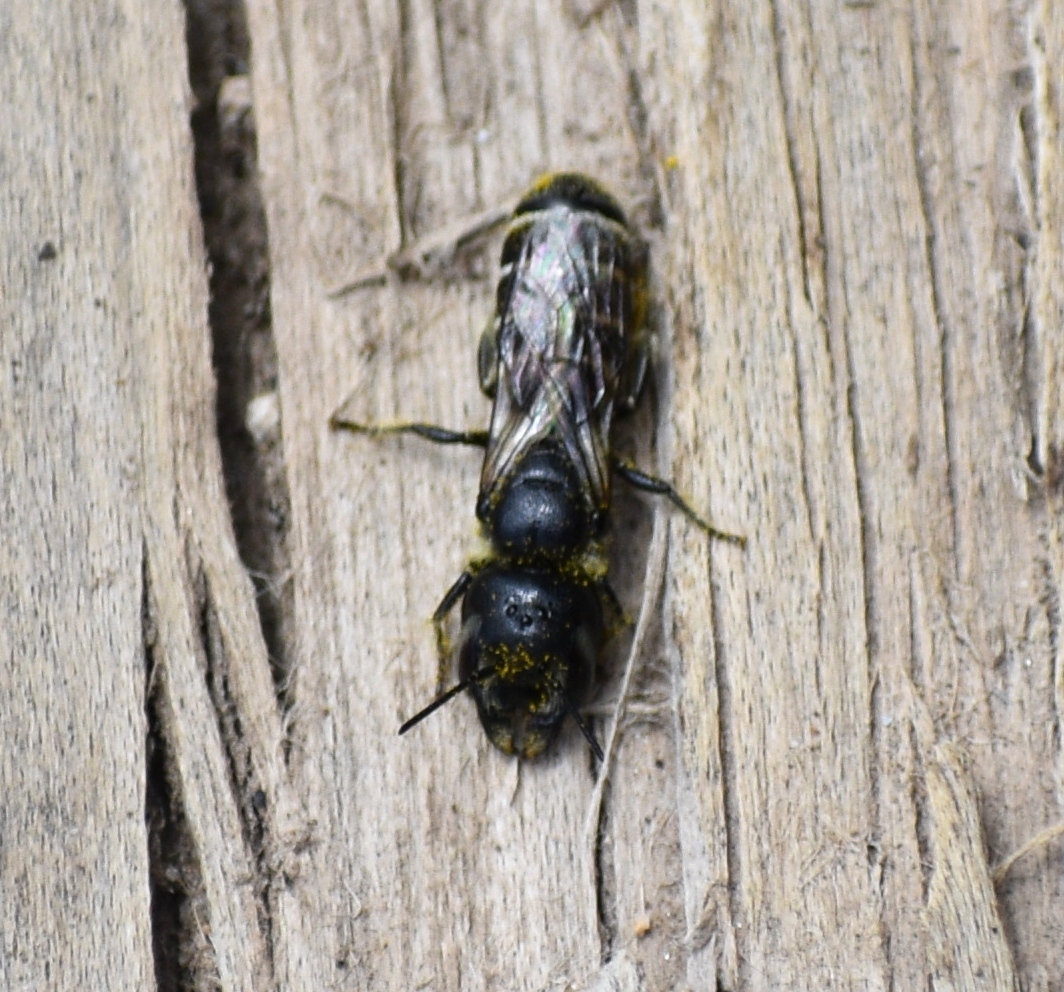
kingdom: Animalia
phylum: Arthropoda
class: Insecta
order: Hymenoptera
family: Megachilidae
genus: Alcidamea
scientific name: Alcidamea
